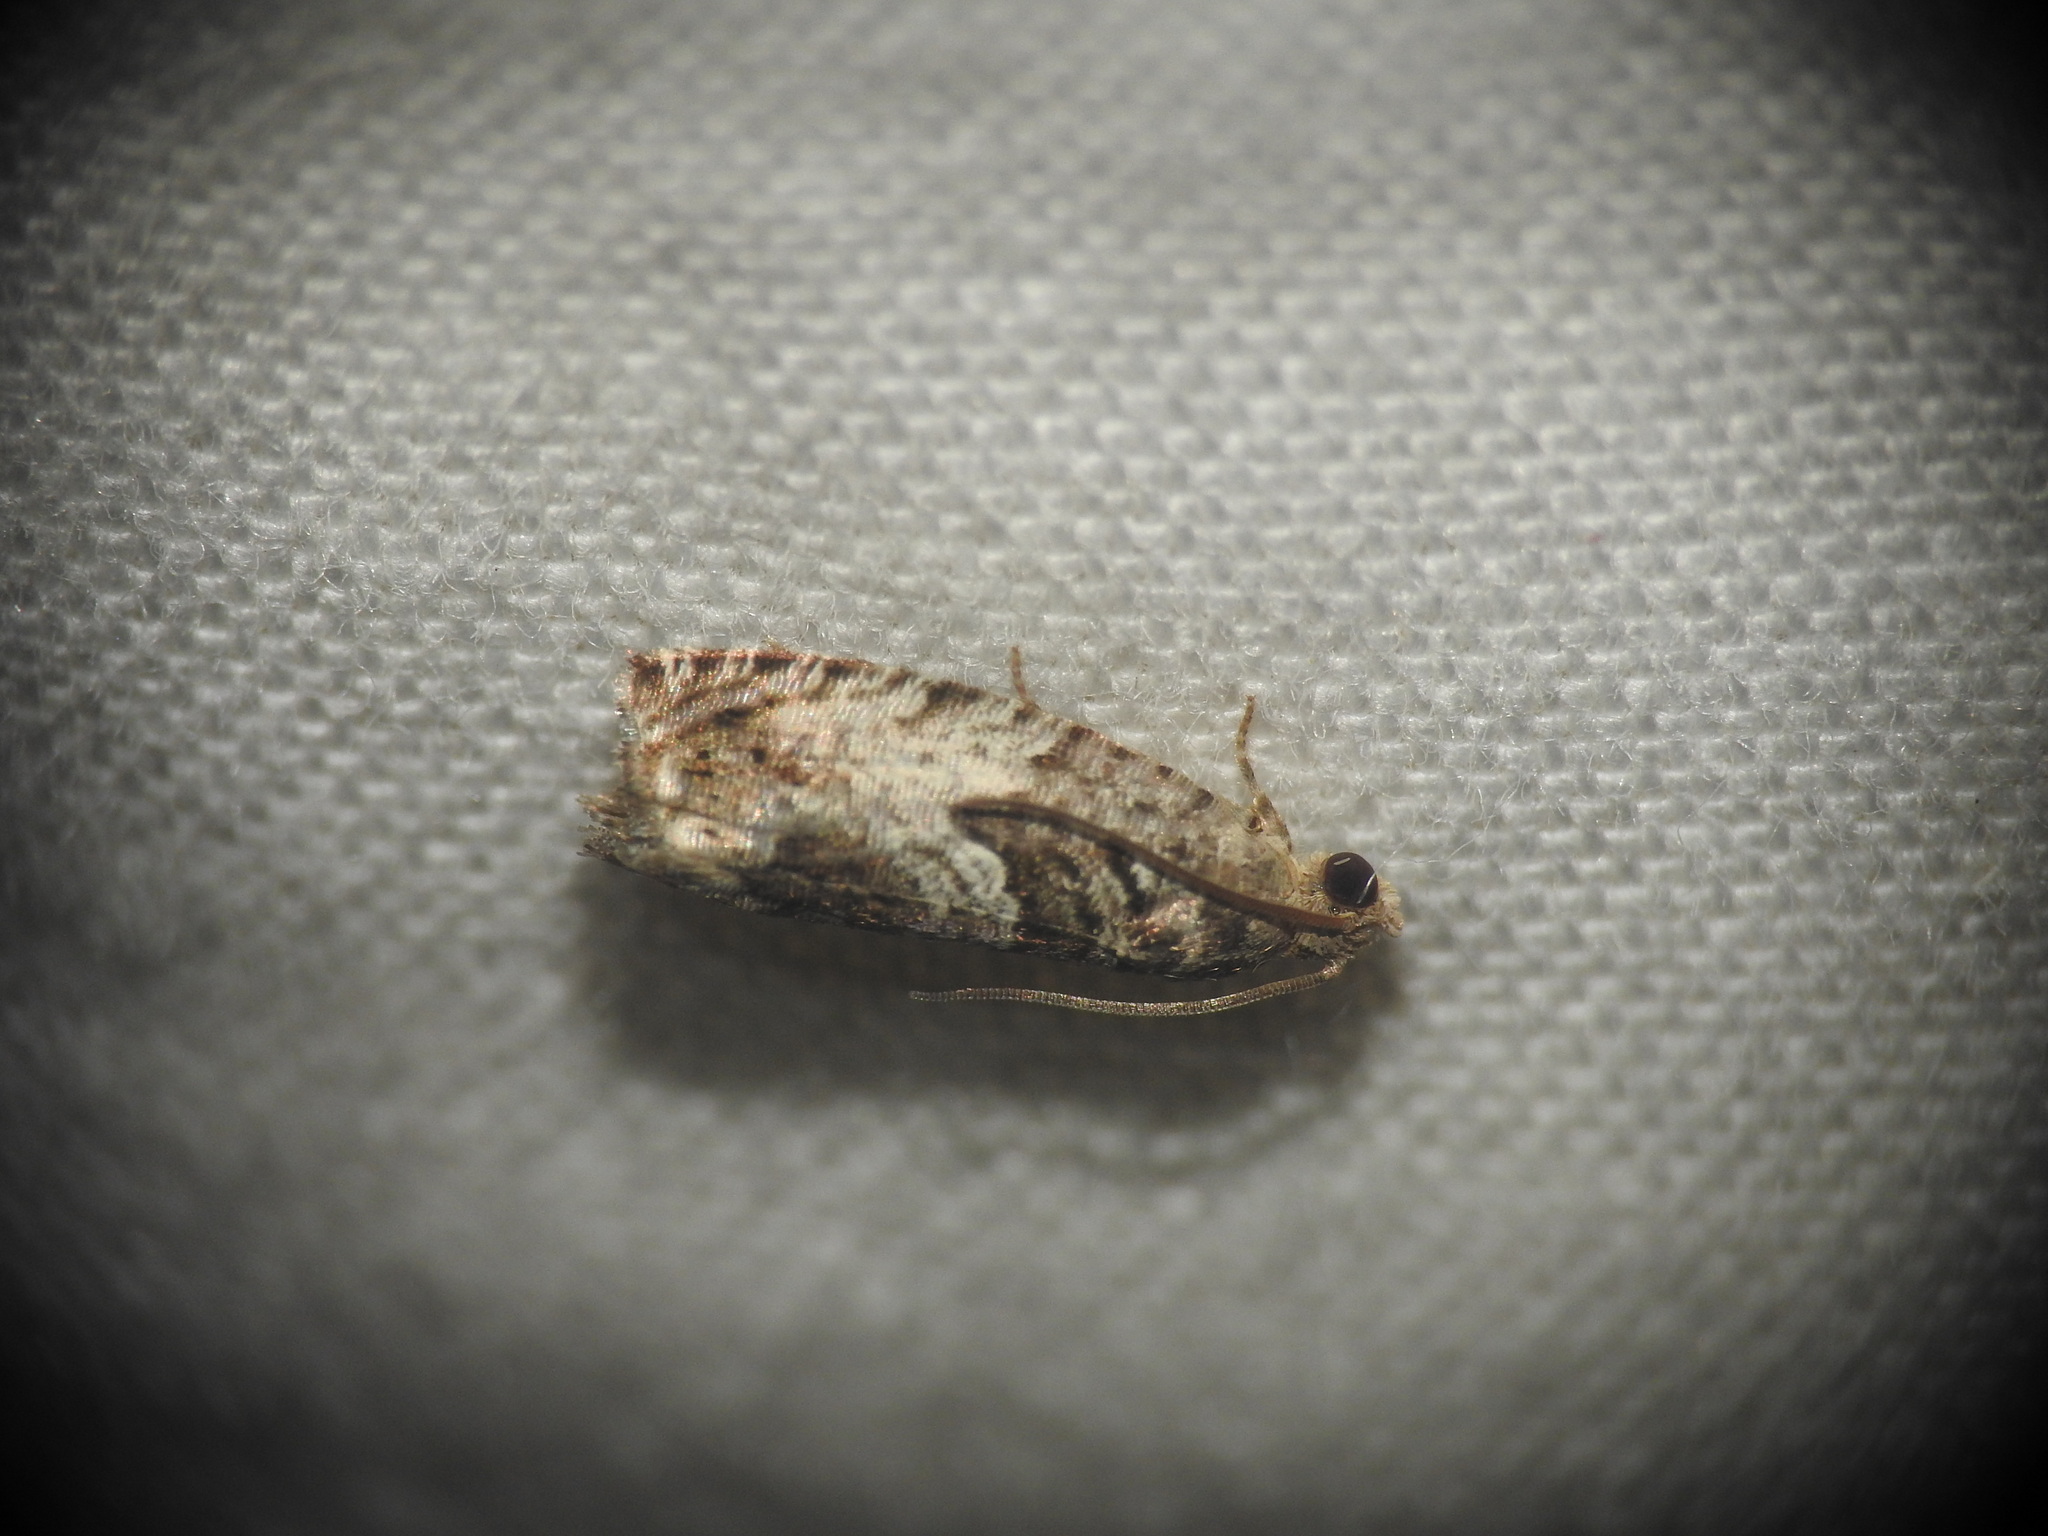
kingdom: Animalia
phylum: Arthropoda
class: Insecta
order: Lepidoptera
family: Tortricidae
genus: Cydia
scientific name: Cydia fagiglandana
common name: Large beech piercer
